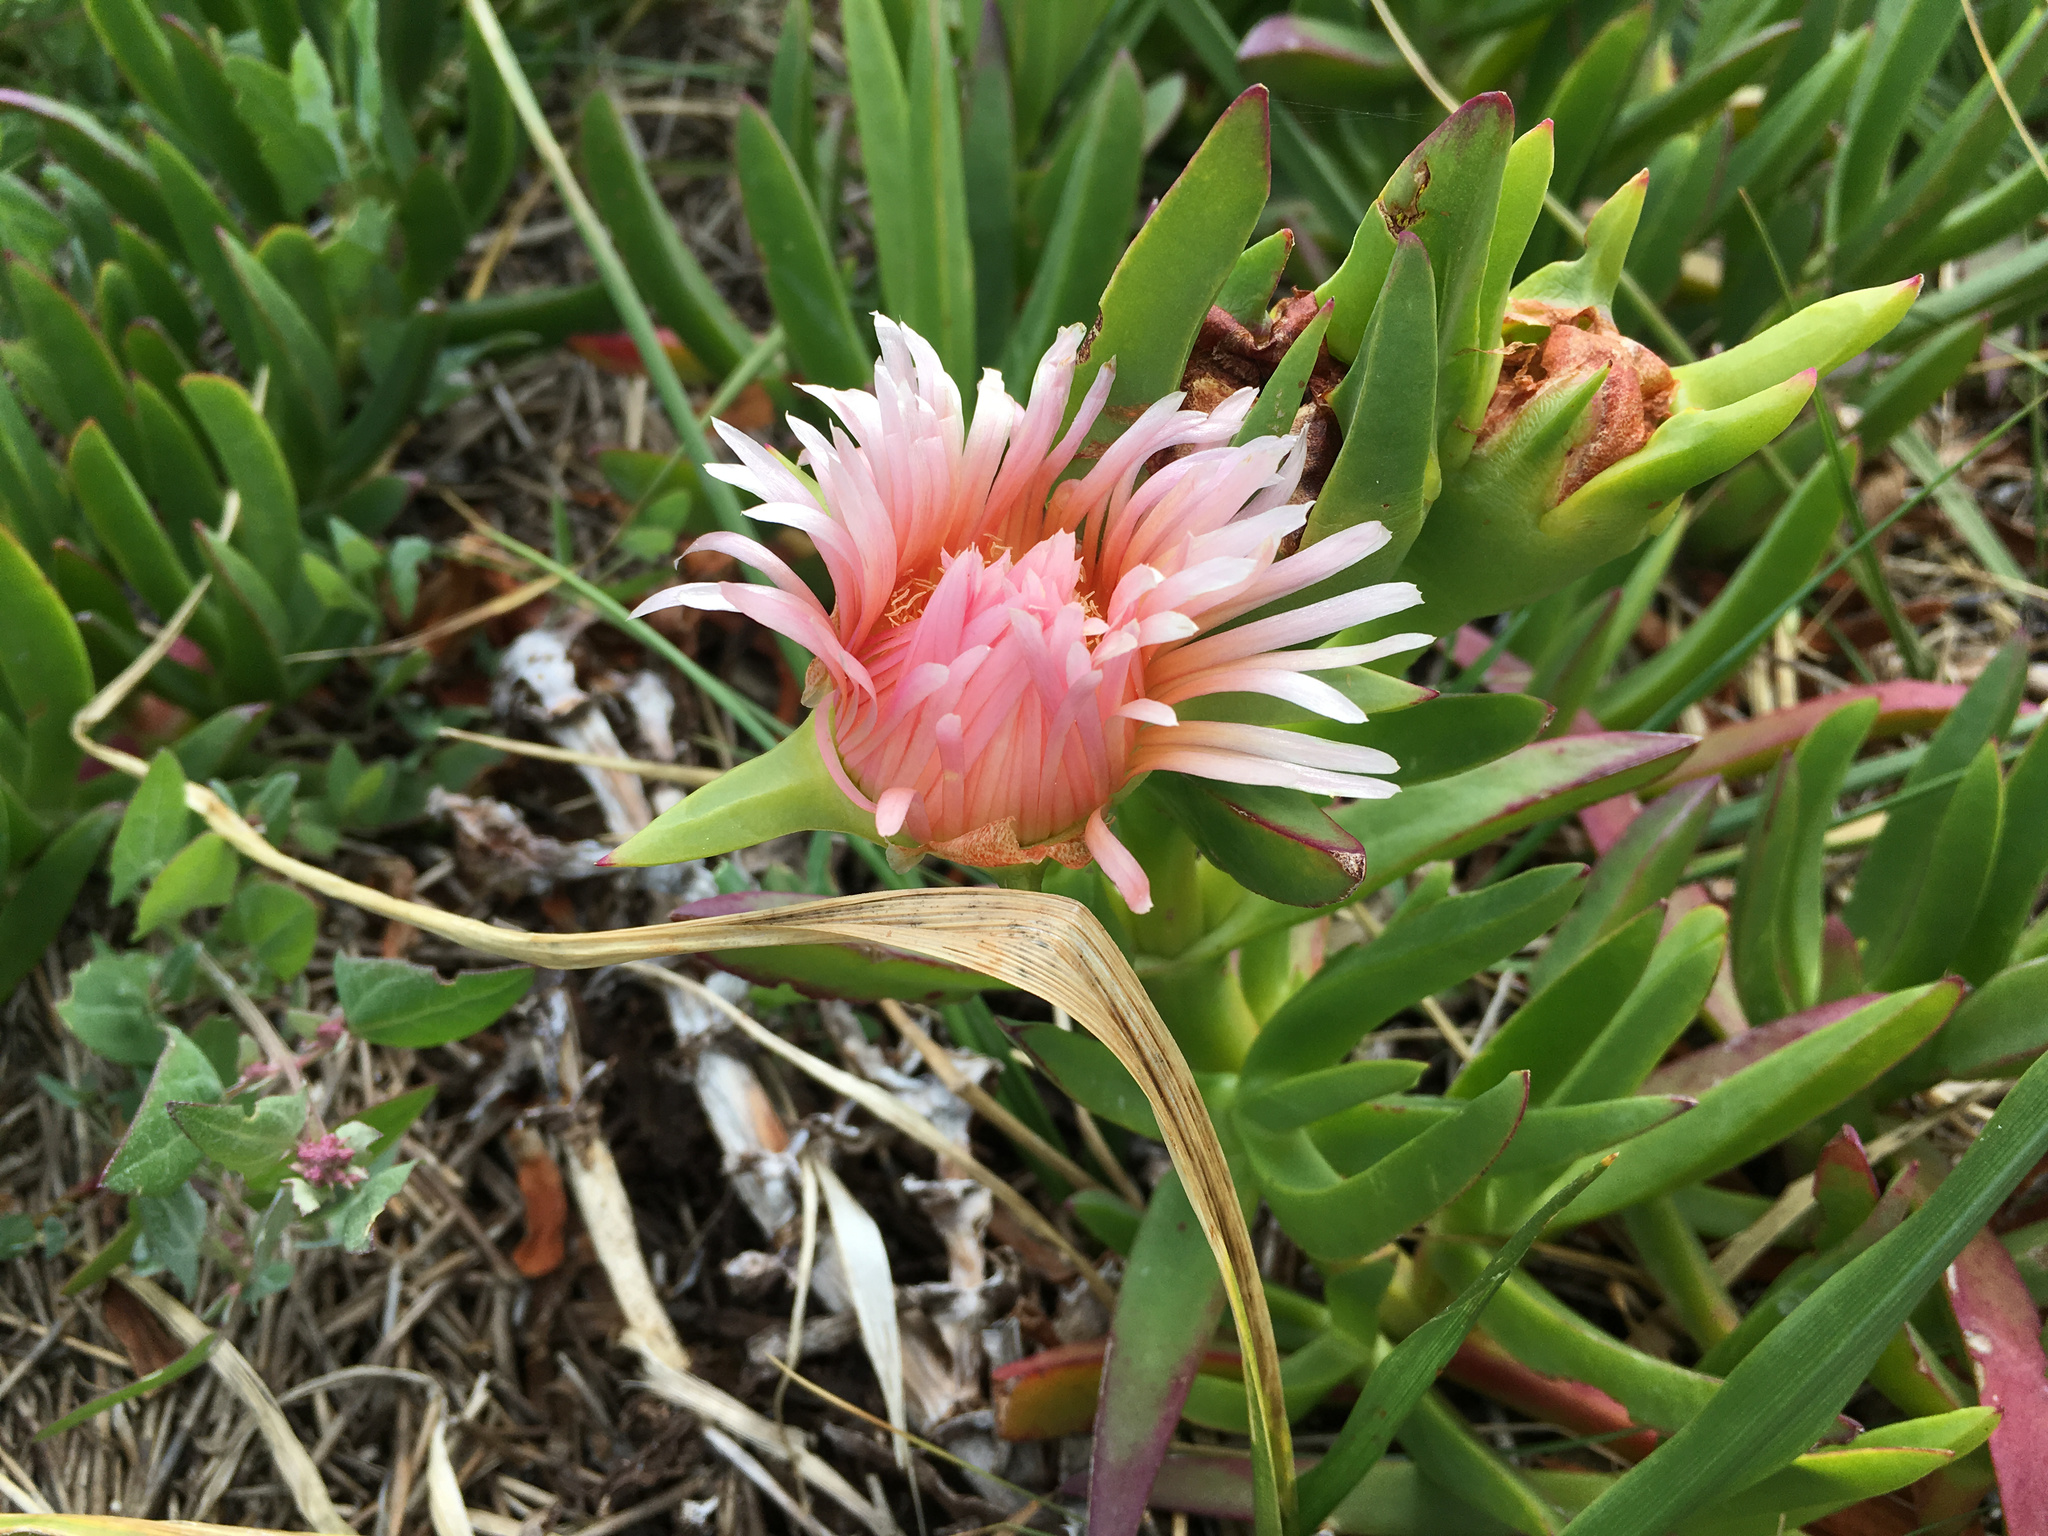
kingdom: Plantae
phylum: Tracheophyta
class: Magnoliopsida
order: Caryophyllales
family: Aizoaceae
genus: Carpobrotus
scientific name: Carpobrotus chilensis
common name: Sea fig
